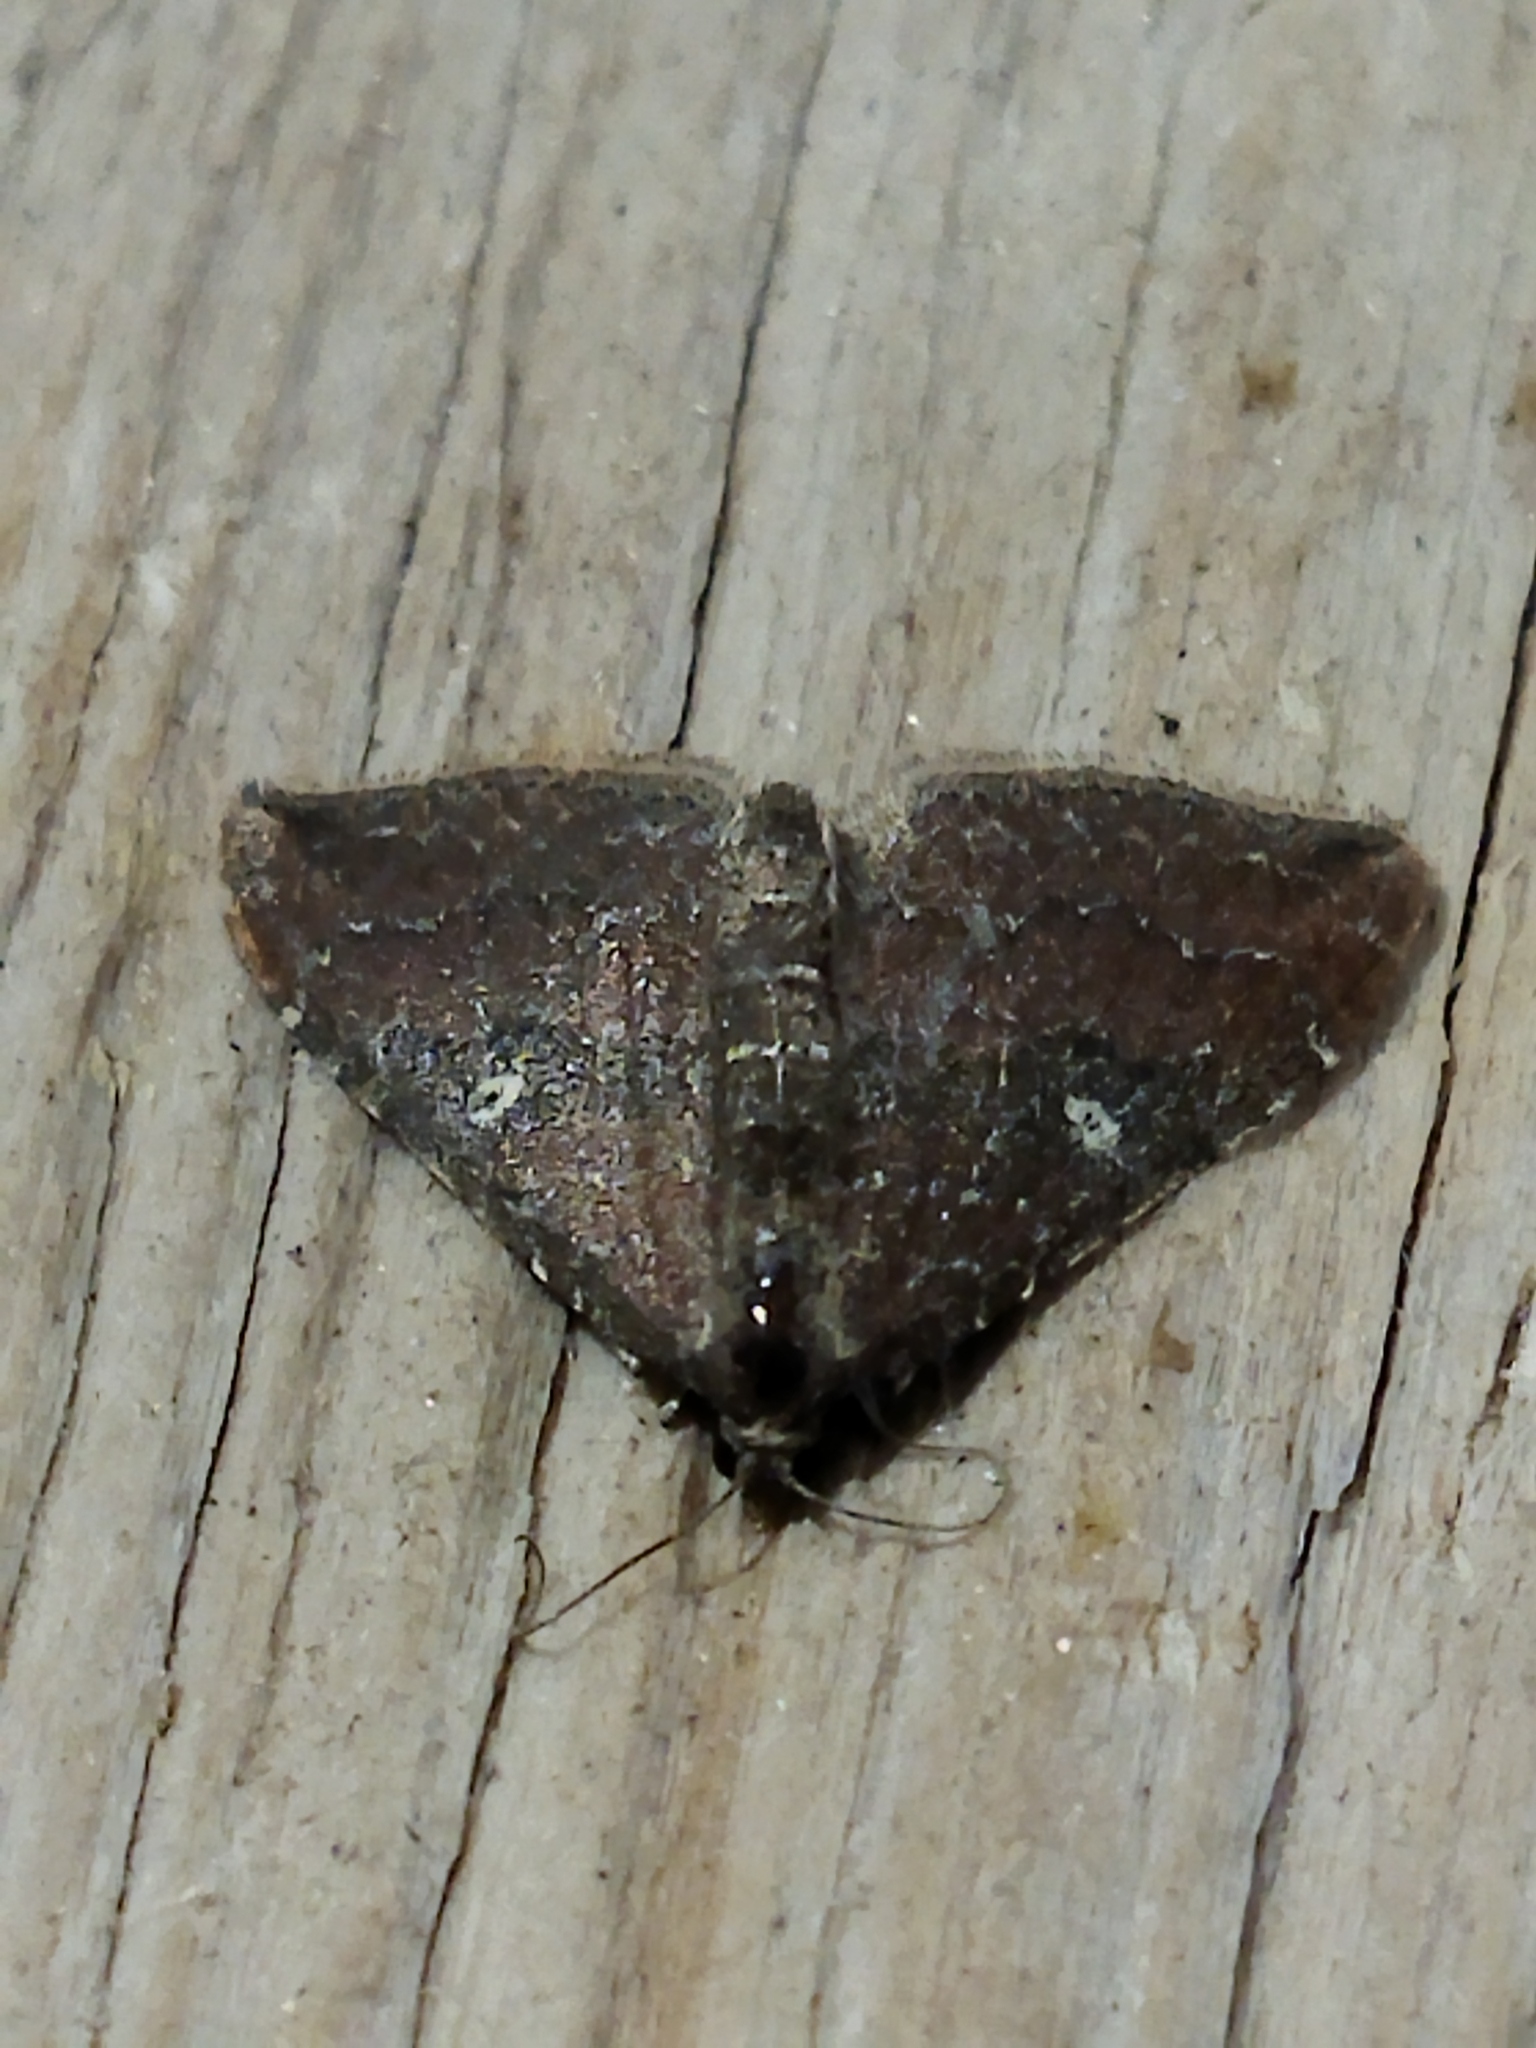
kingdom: Animalia
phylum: Arthropoda
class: Insecta
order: Lepidoptera
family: Geometridae
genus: Orthonama
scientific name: Orthonama obstipata
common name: The gem
